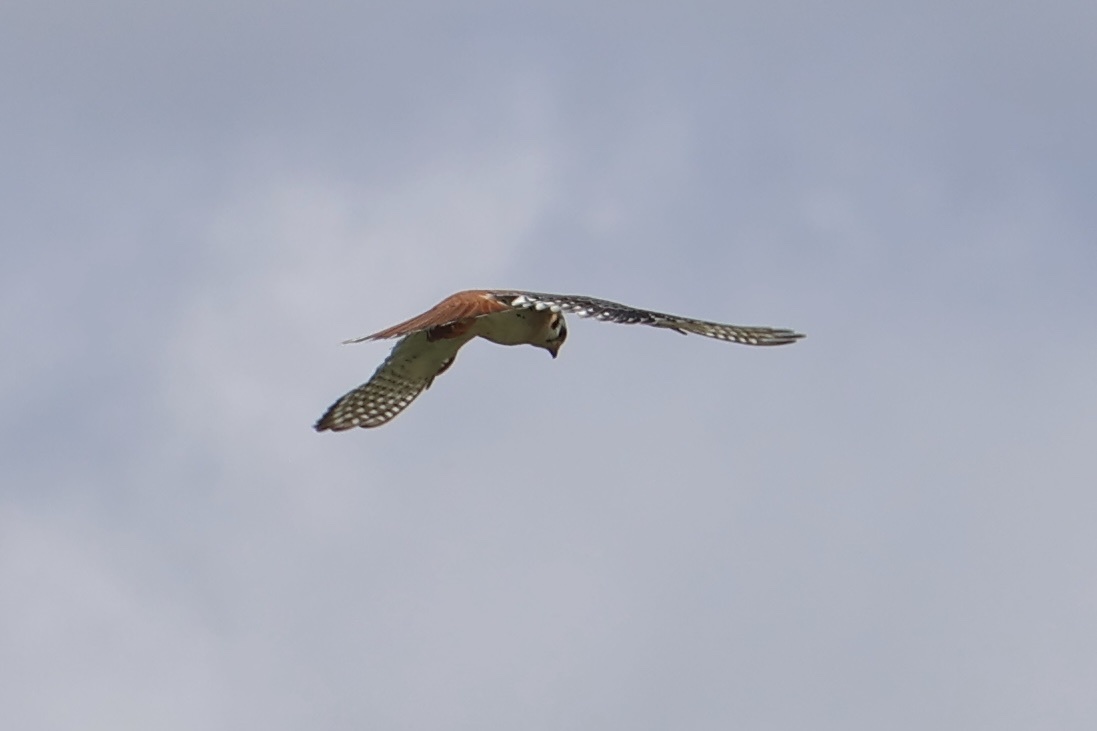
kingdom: Animalia
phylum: Chordata
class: Aves
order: Falconiformes
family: Falconidae
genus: Falco
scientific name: Falco sparverius
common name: American kestrel
